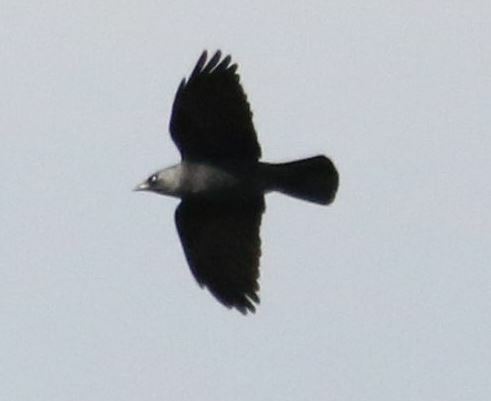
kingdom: Animalia
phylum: Chordata
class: Aves
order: Passeriformes
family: Corvidae
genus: Coloeus
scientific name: Coloeus monedula
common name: Western jackdaw
